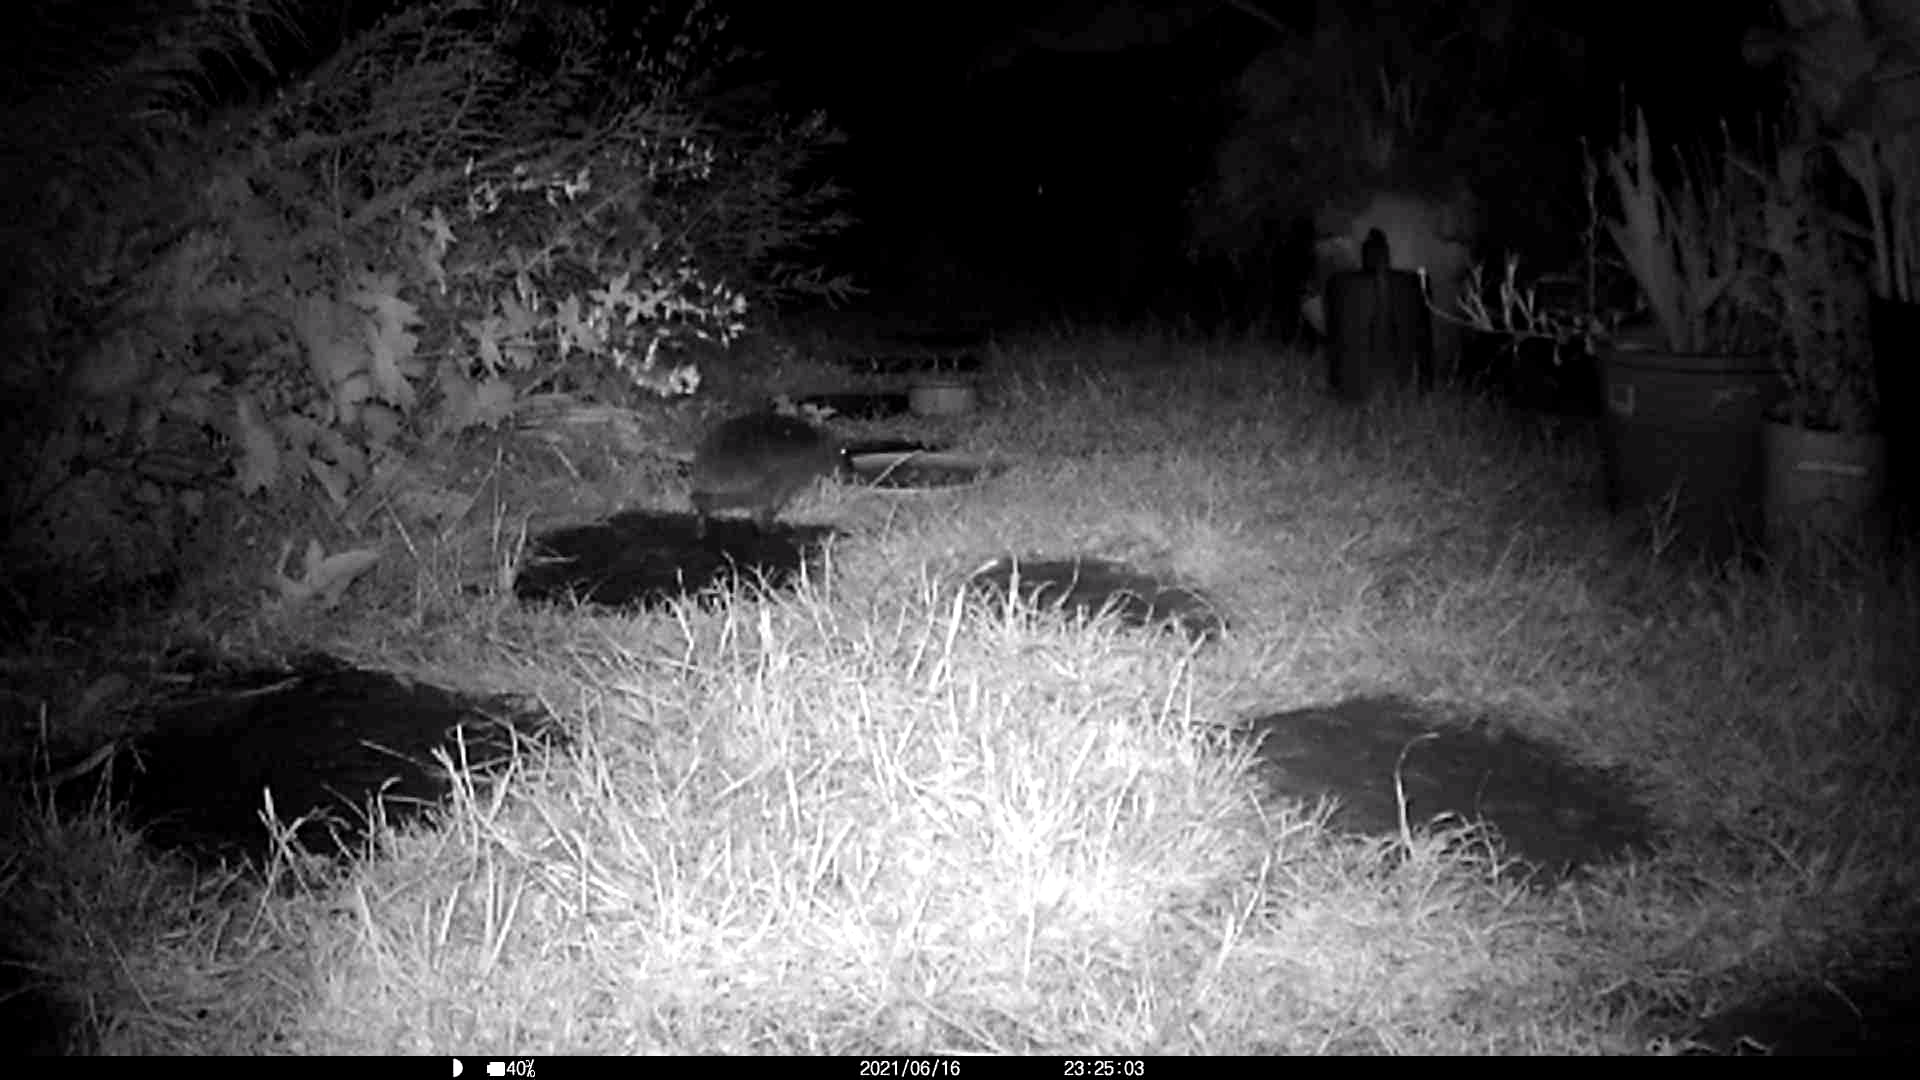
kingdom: Animalia
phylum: Chordata
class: Mammalia
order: Erinaceomorpha
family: Erinaceidae
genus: Erinaceus
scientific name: Erinaceus europaeus
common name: West european hedgehog
